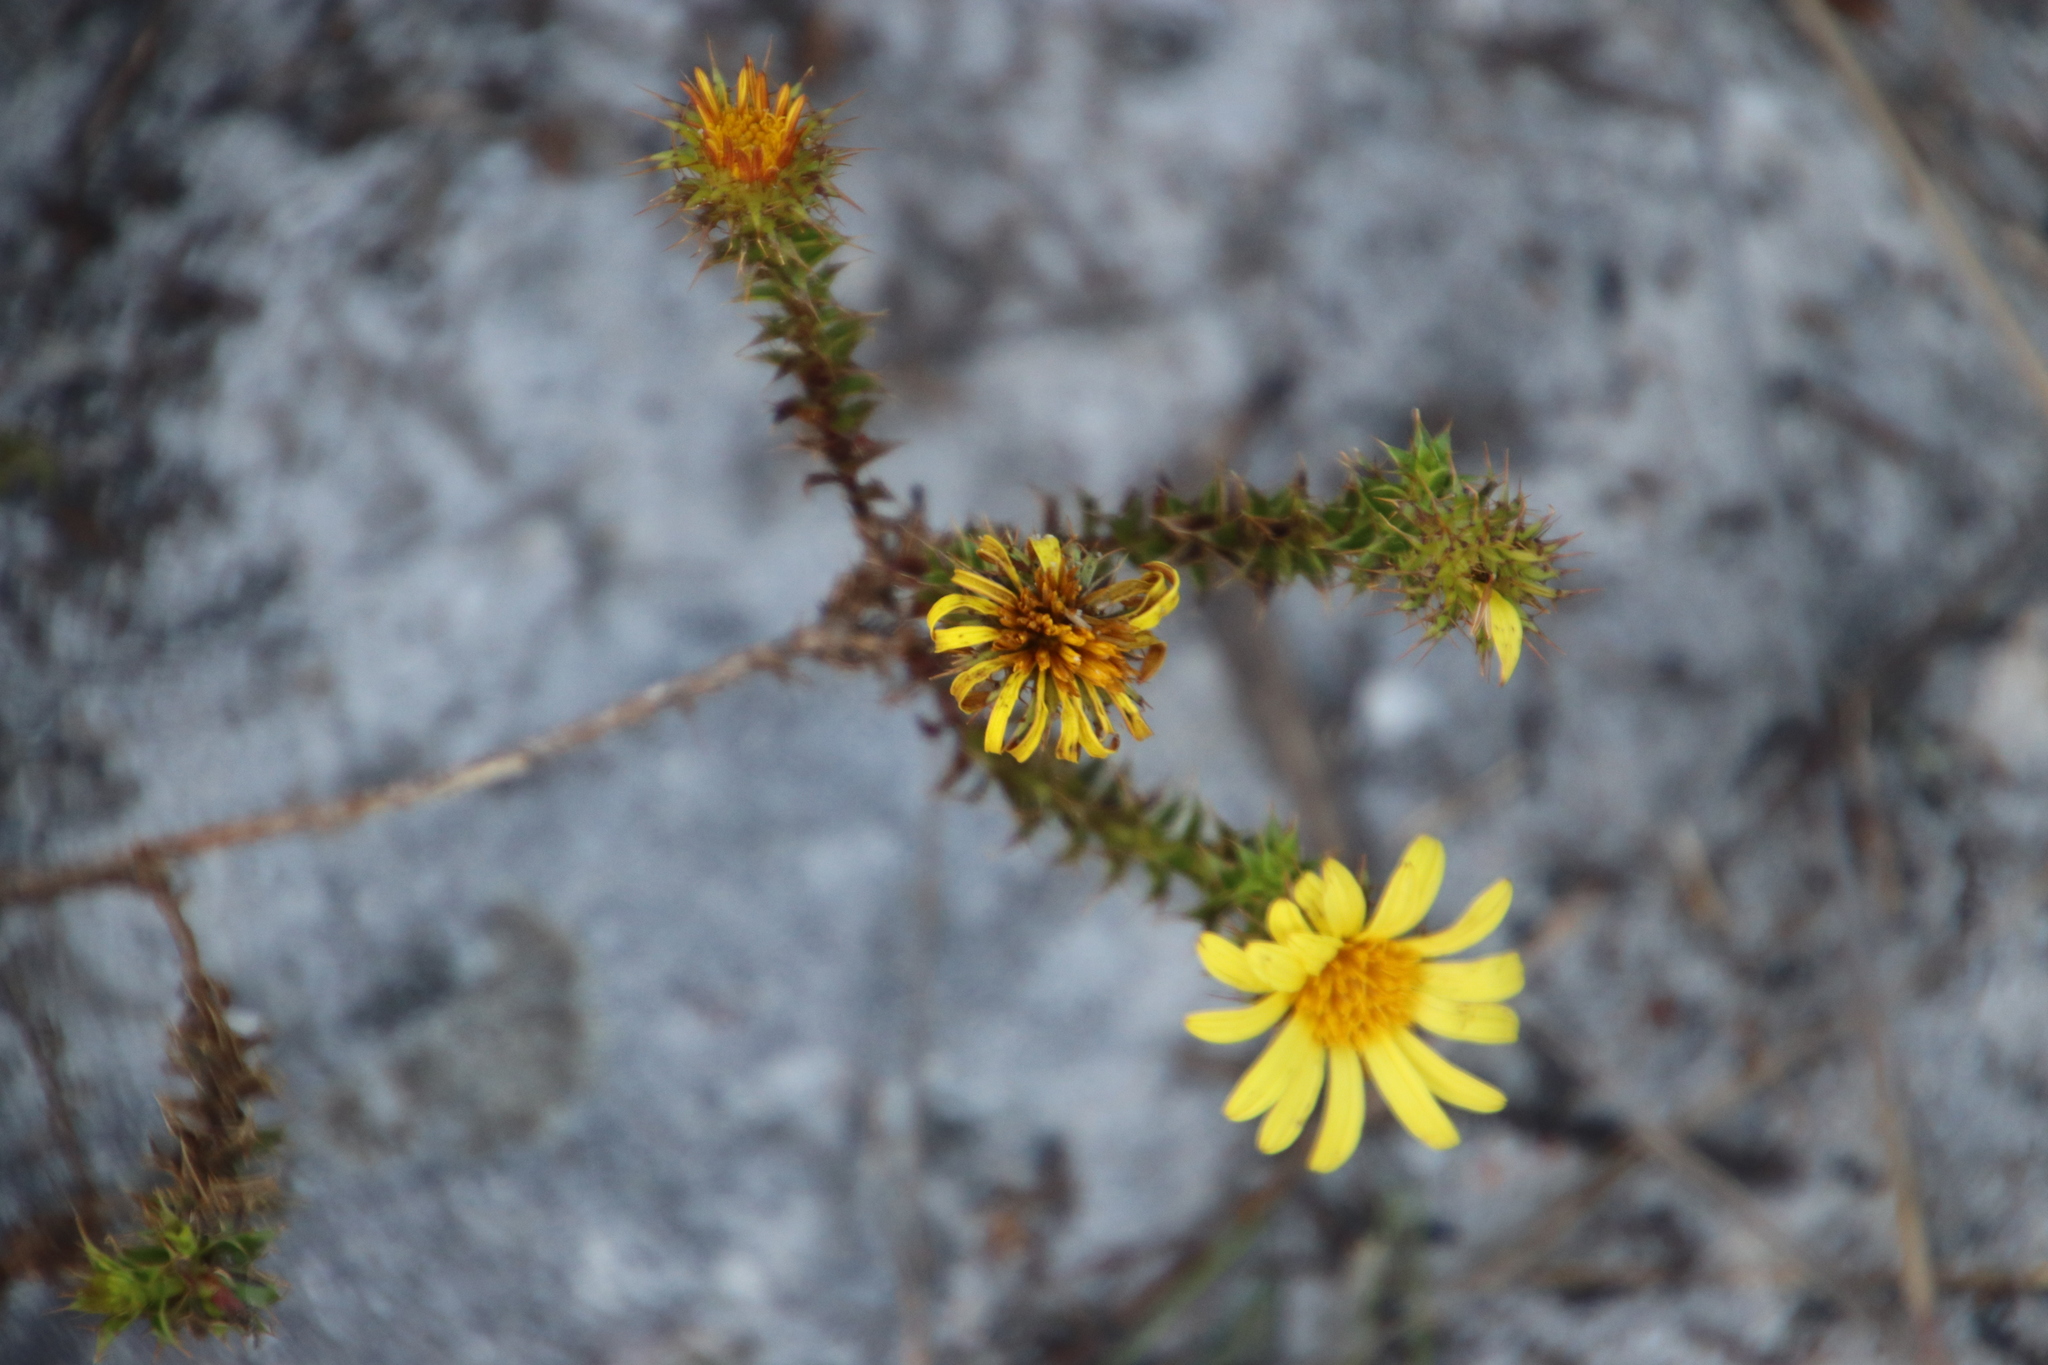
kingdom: Plantae
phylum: Tracheophyta
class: Magnoliopsida
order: Asterales
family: Asteraceae
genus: Cullumia
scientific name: Cullumia setosa
